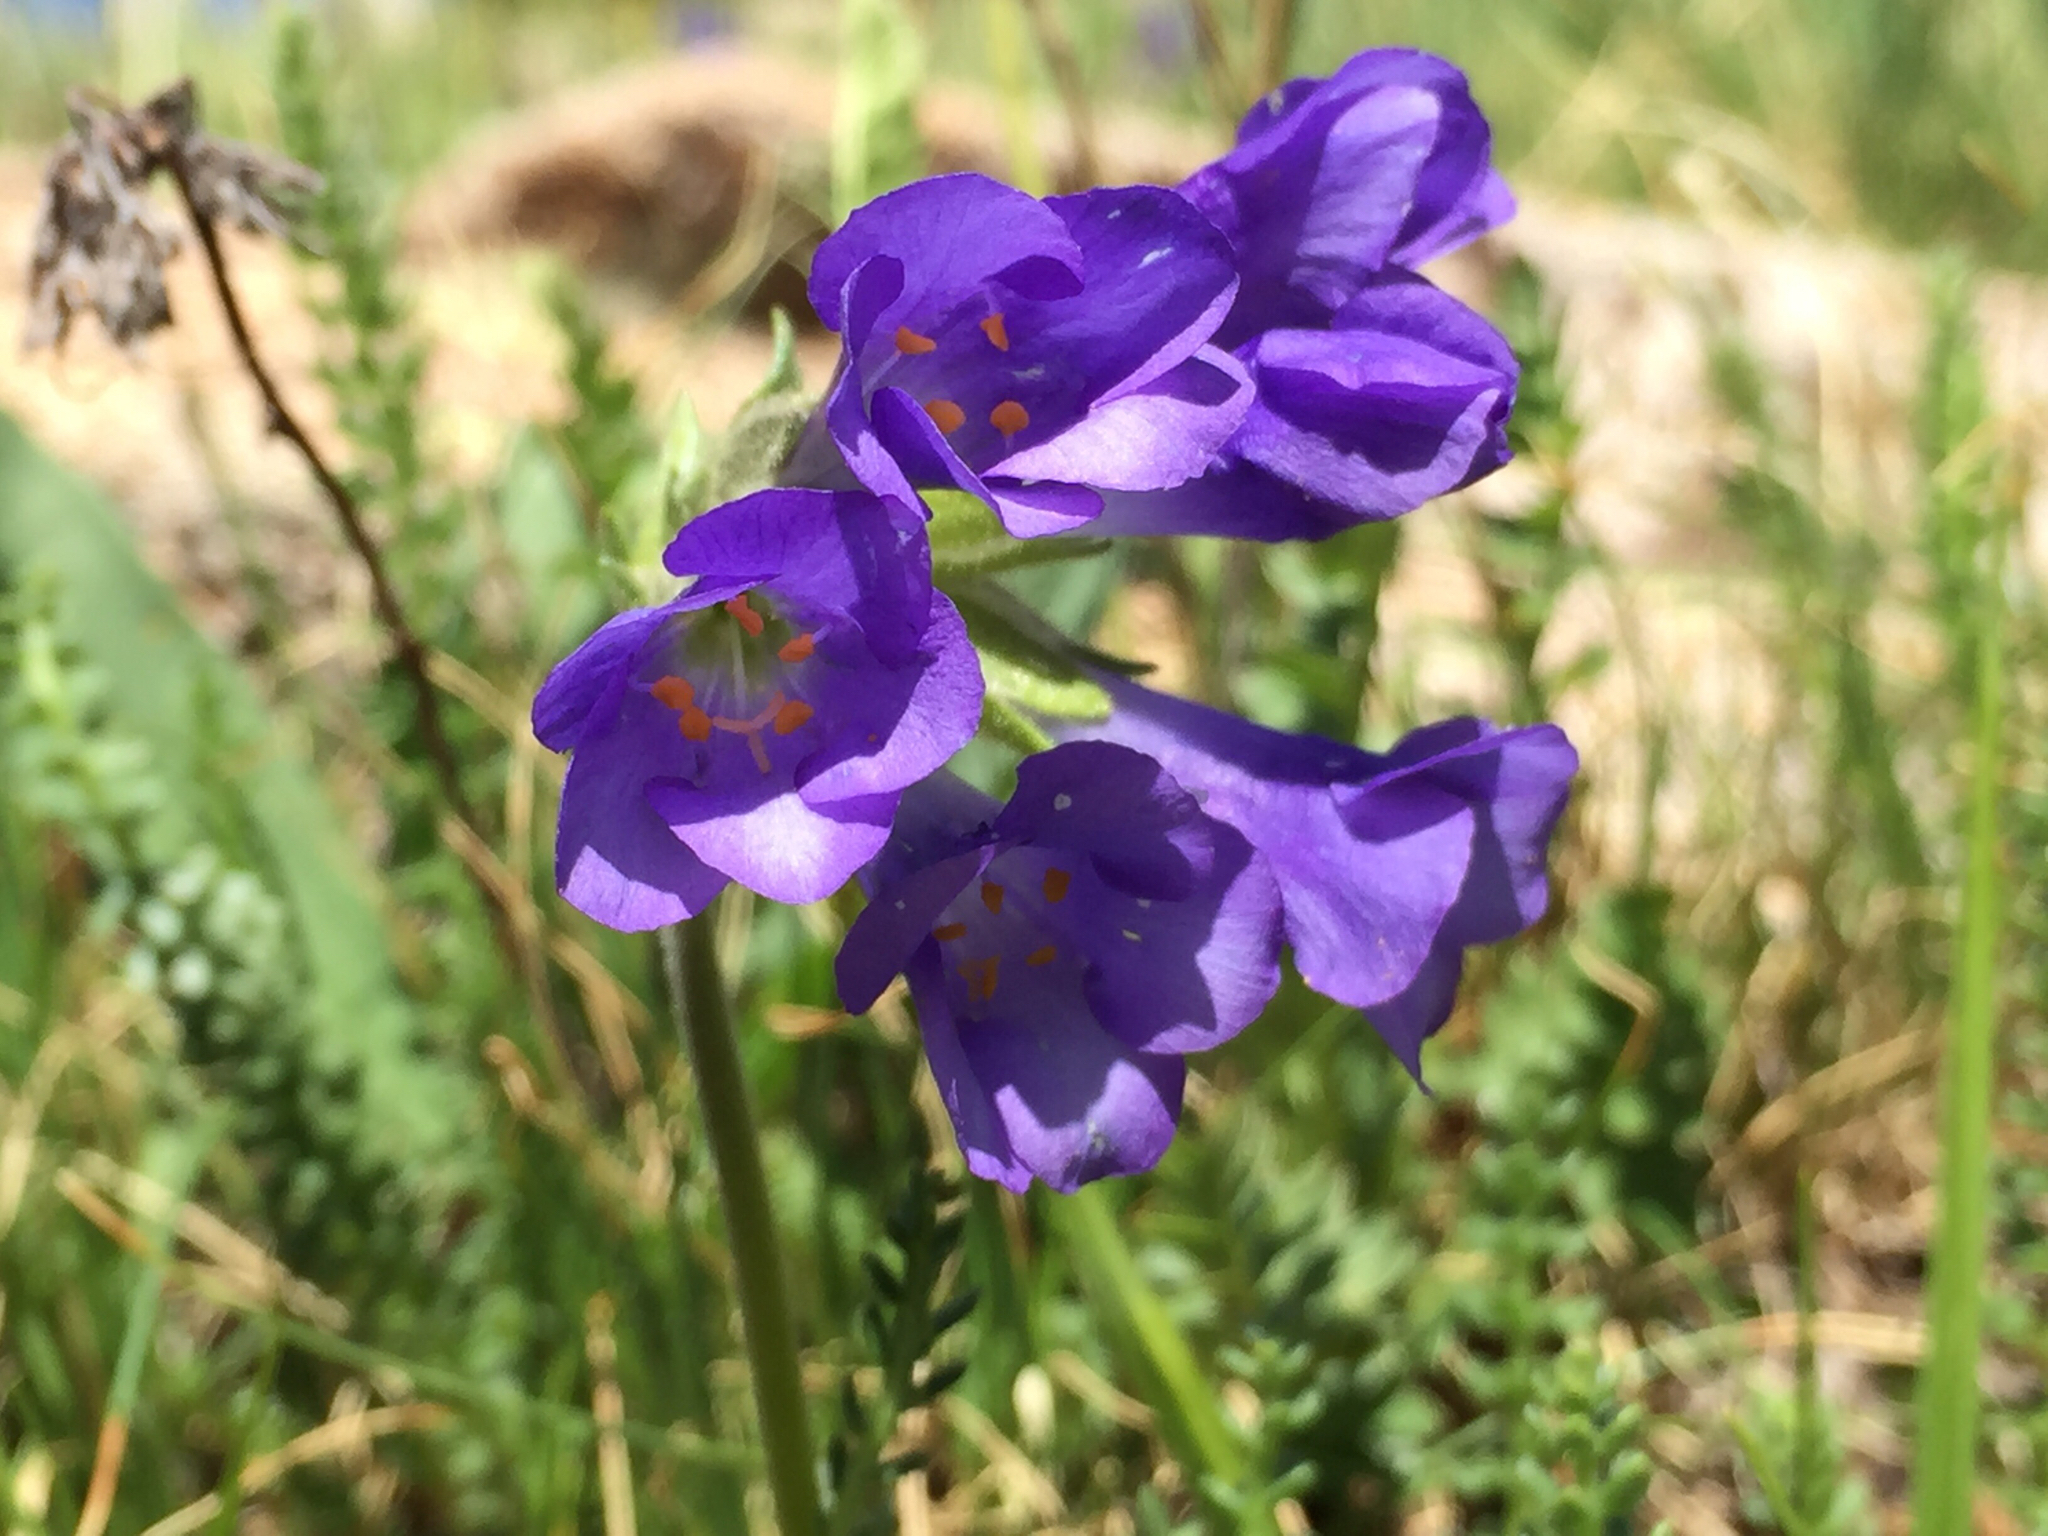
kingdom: Plantae
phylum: Tracheophyta
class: Magnoliopsida
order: Ericales
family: Polemoniaceae
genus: Polemonium
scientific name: Polemonium viscosum
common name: Skunk jacob's-ladder
